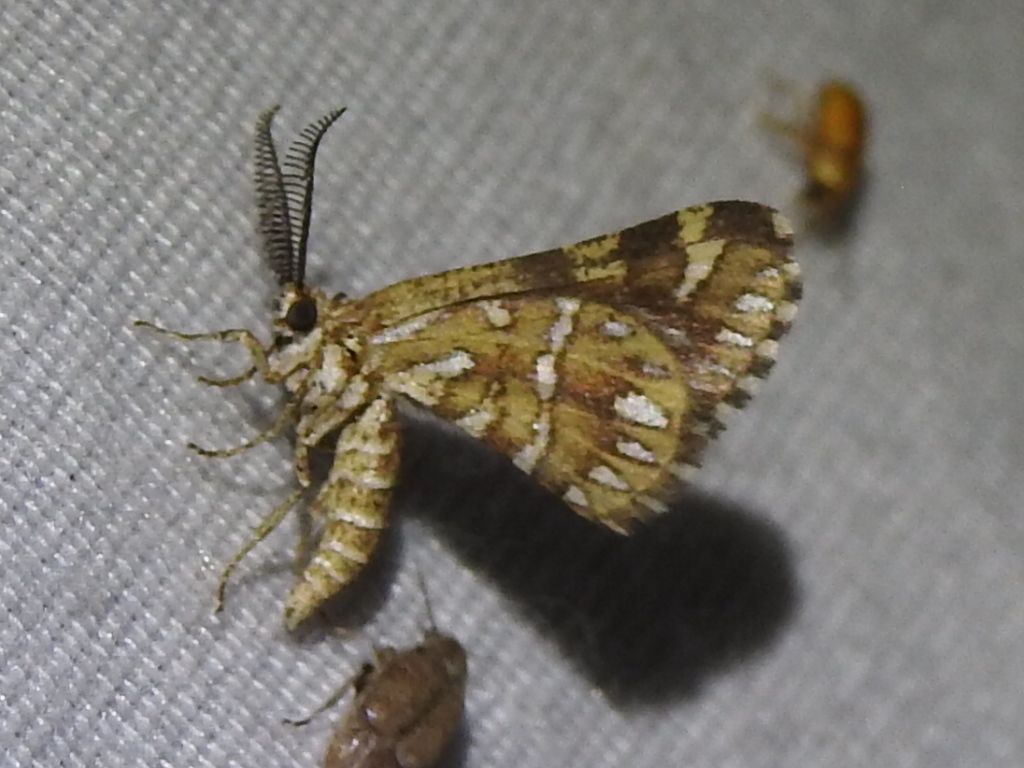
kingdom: Animalia
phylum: Arthropoda
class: Insecta
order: Lepidoptera
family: Geometridae
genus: Narraga
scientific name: Narraga fimetaria
